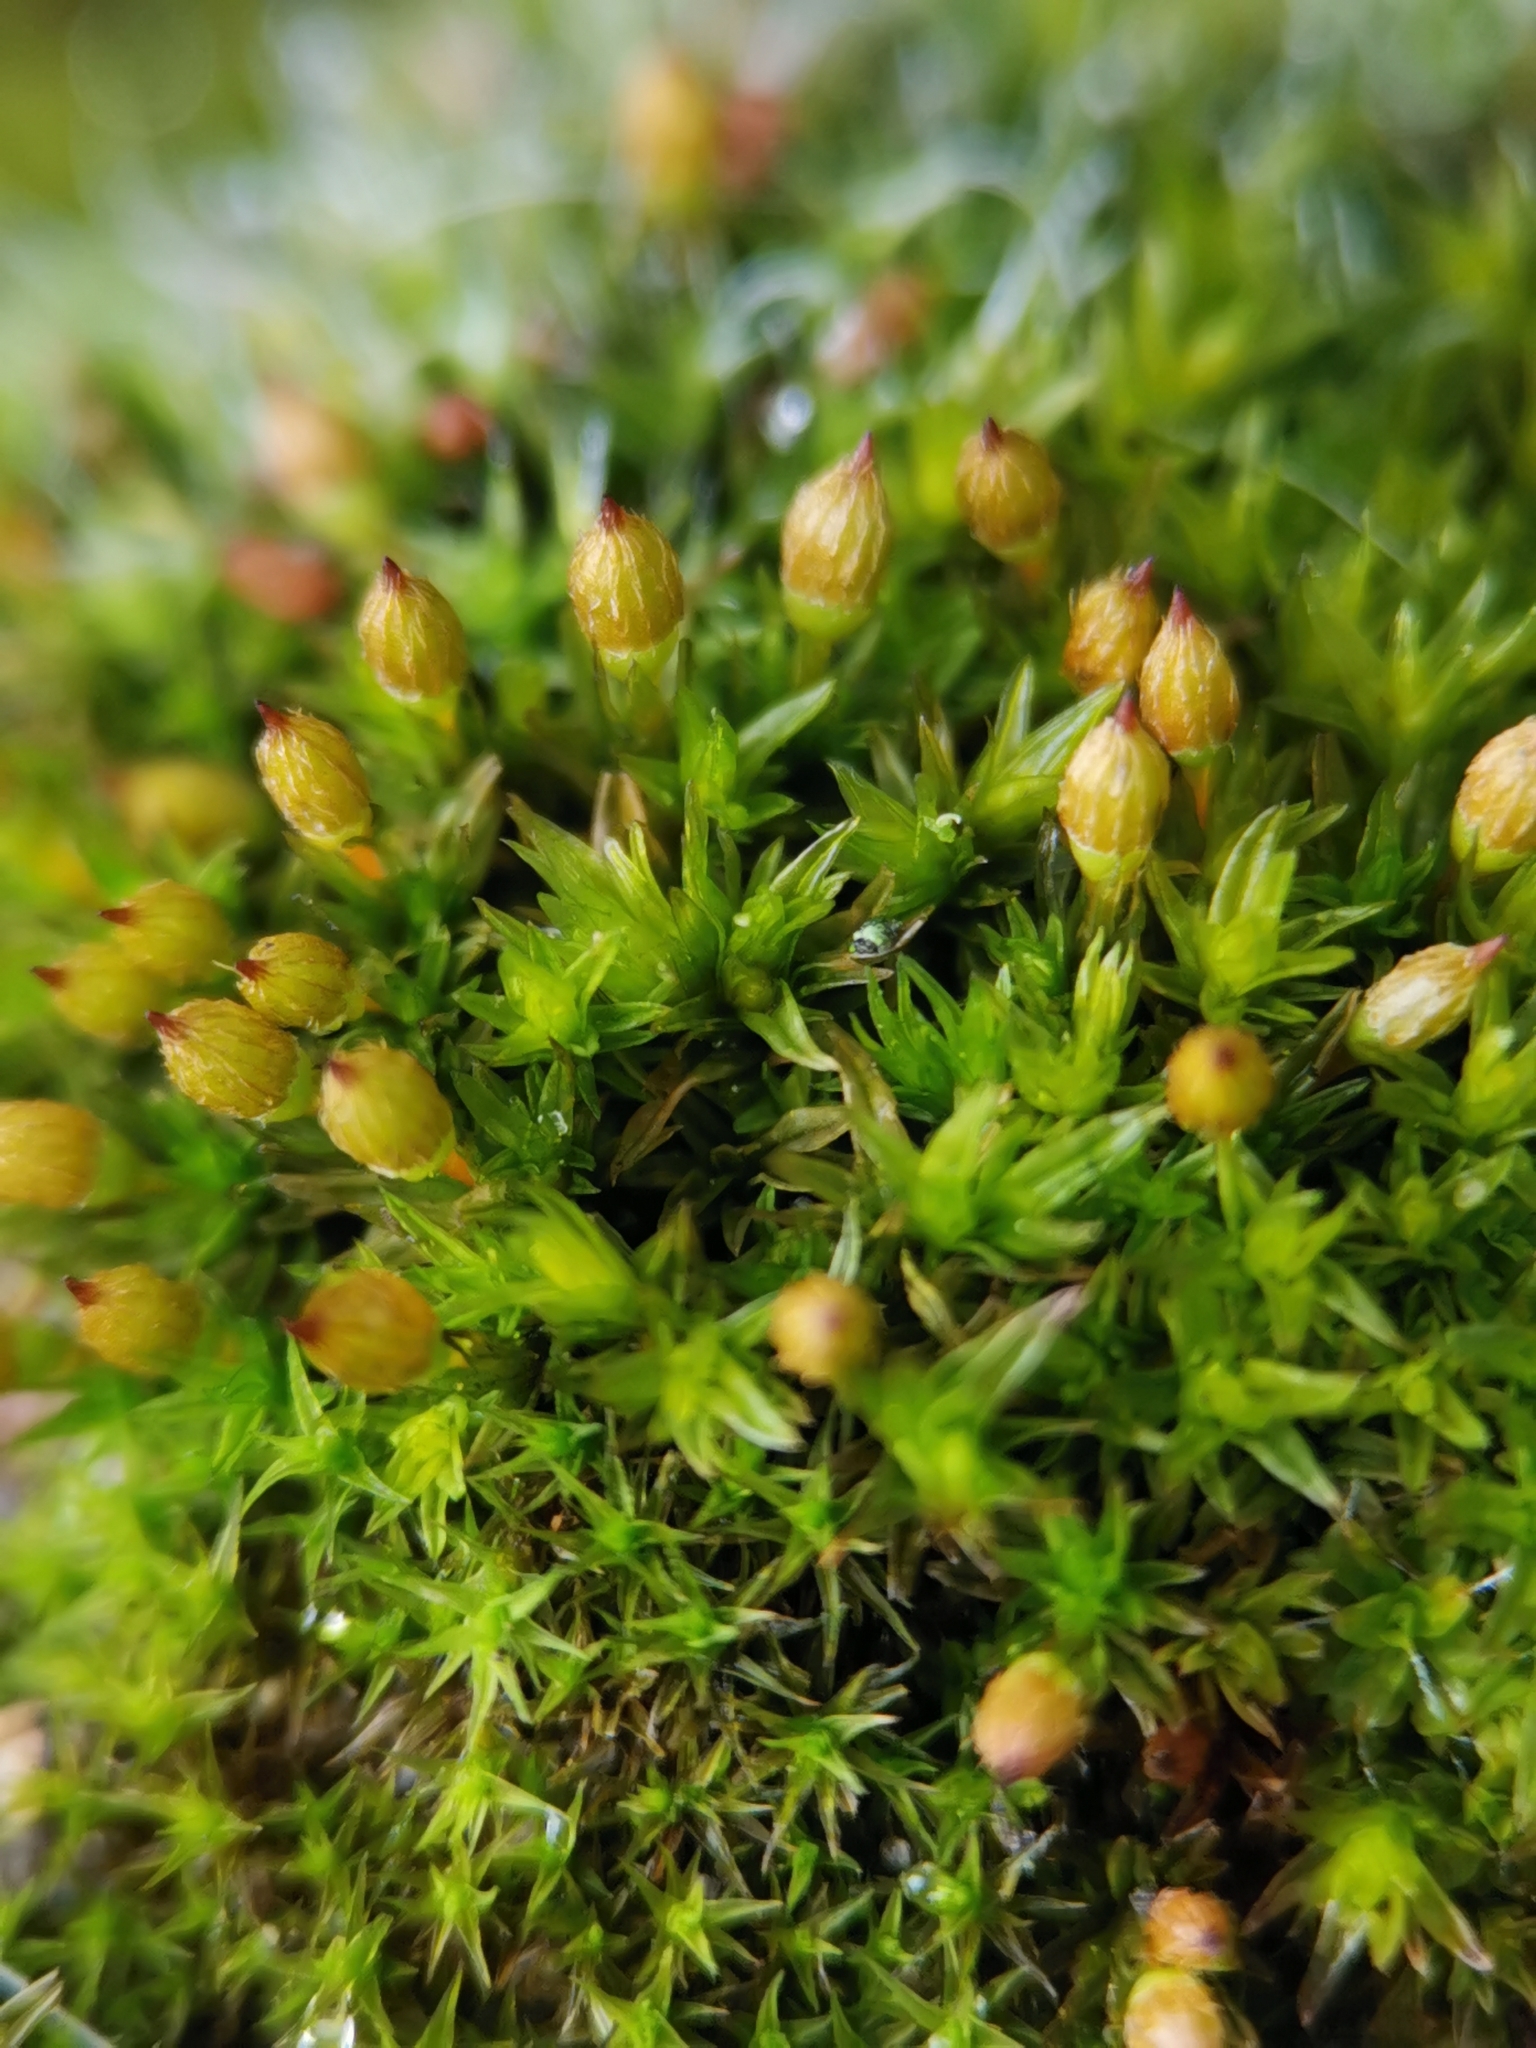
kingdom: Plantae
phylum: Bryophyta
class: Bryopsida
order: Orthotrichales
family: Orthotrichaceae
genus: Orthotrichum
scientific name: Orthotrichum anomalum
